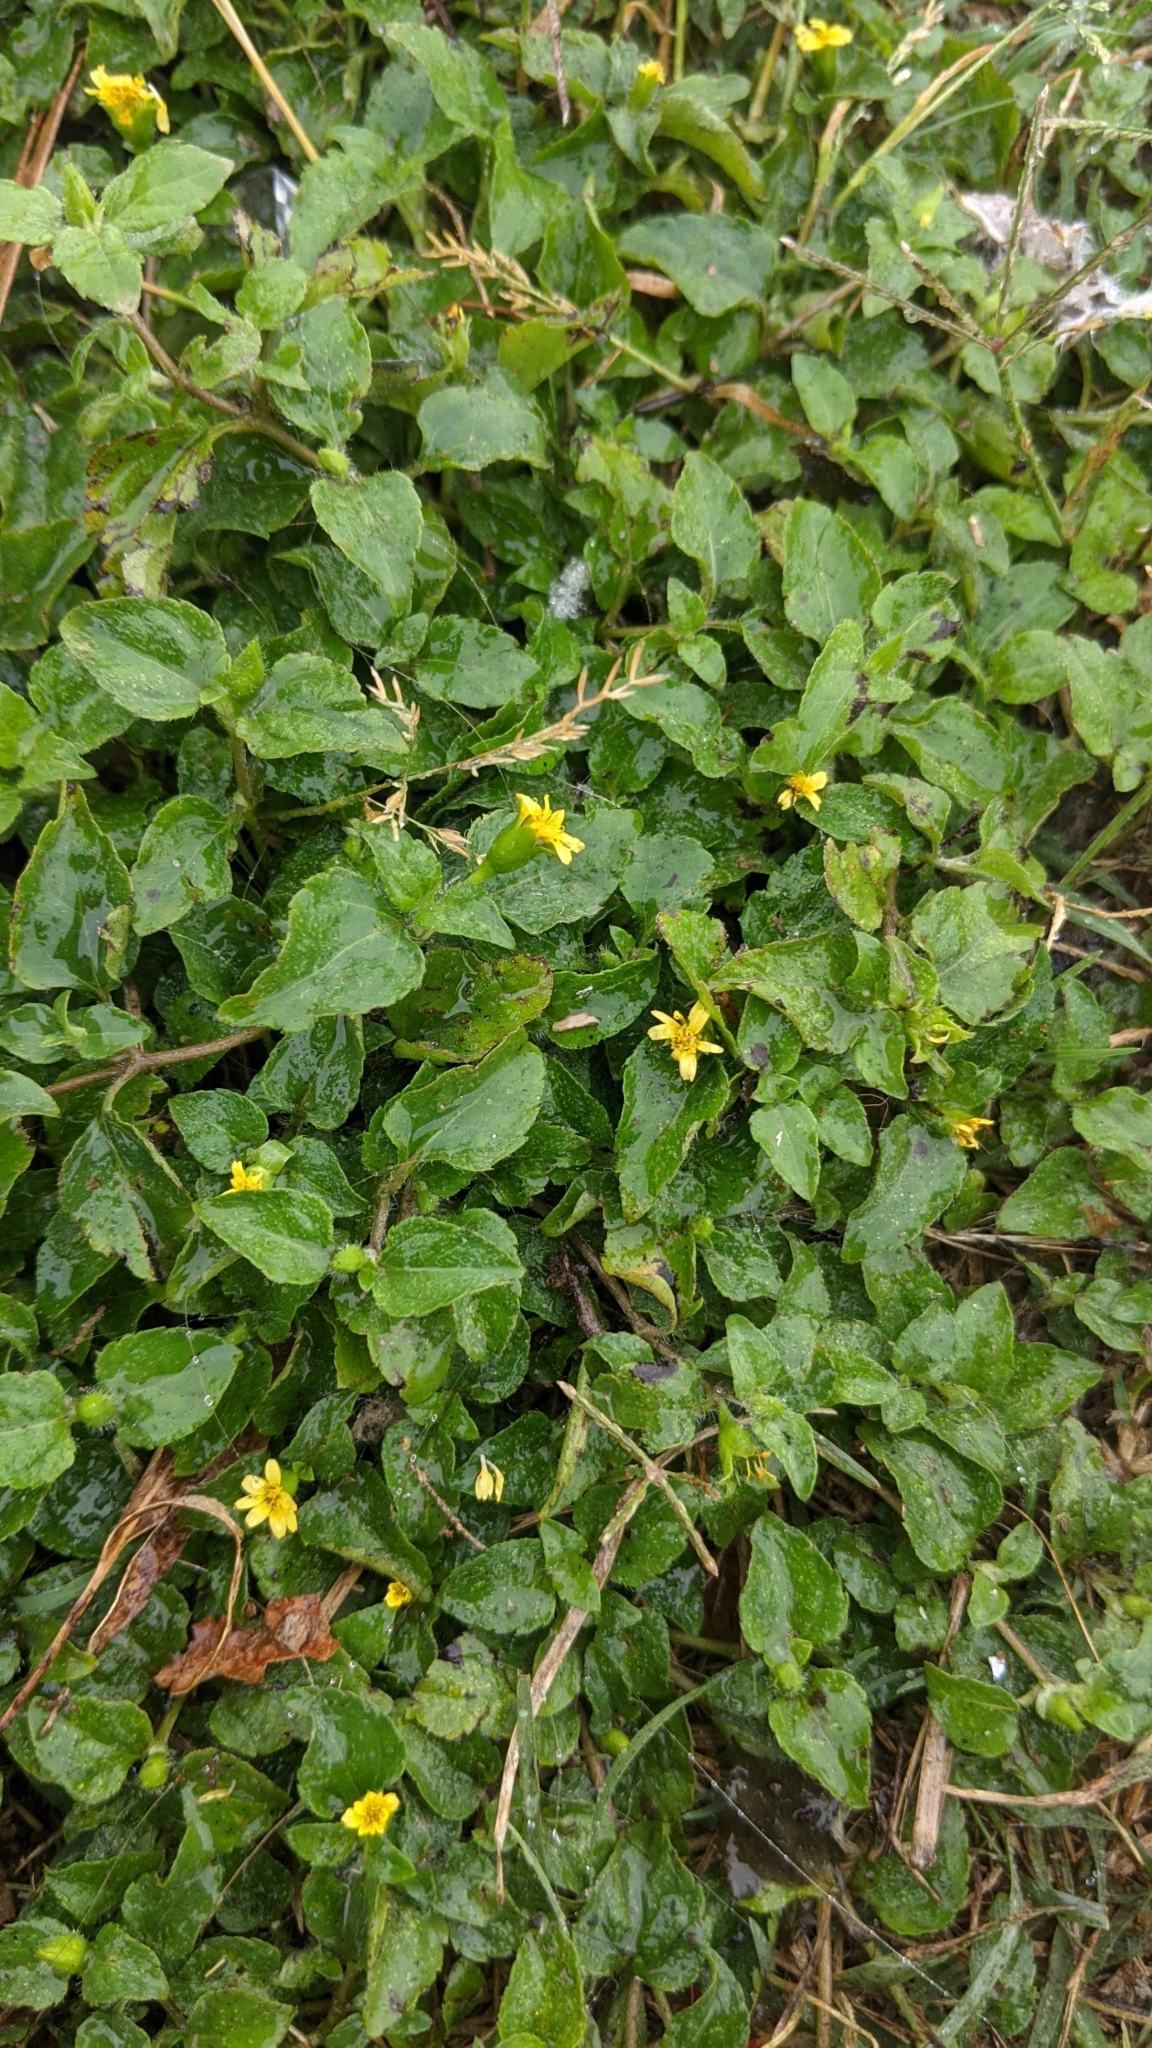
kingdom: Plantae
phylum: Tracheophyta
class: Magnoliopsida
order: Asterales
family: Asteraceae
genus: Calyptocarpus
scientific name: Calyptocarpus vialis
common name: Straggler daisy
